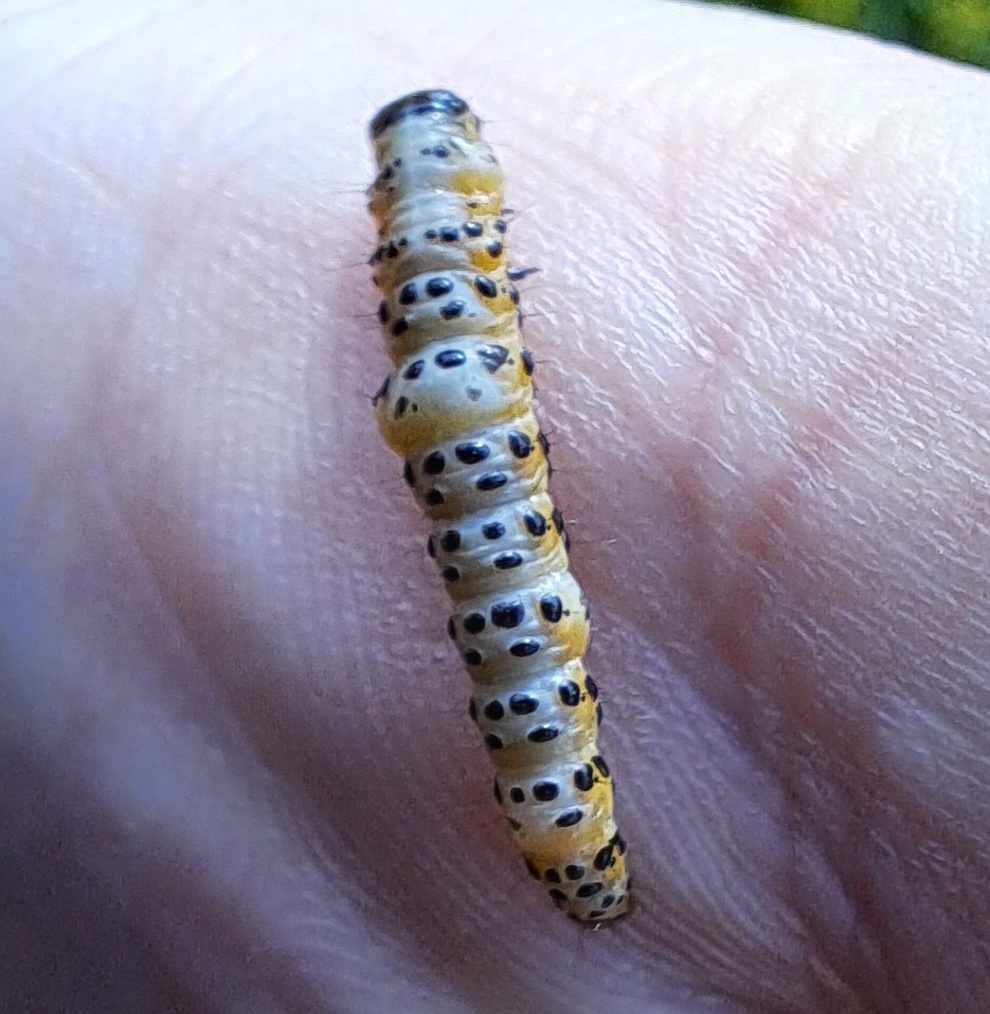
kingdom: Animalia
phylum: Arthropoda
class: Insecta
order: Lepidoptera
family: Depressariidae
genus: Depressaria
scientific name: Depressaria radiella
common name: Parsnip moth
